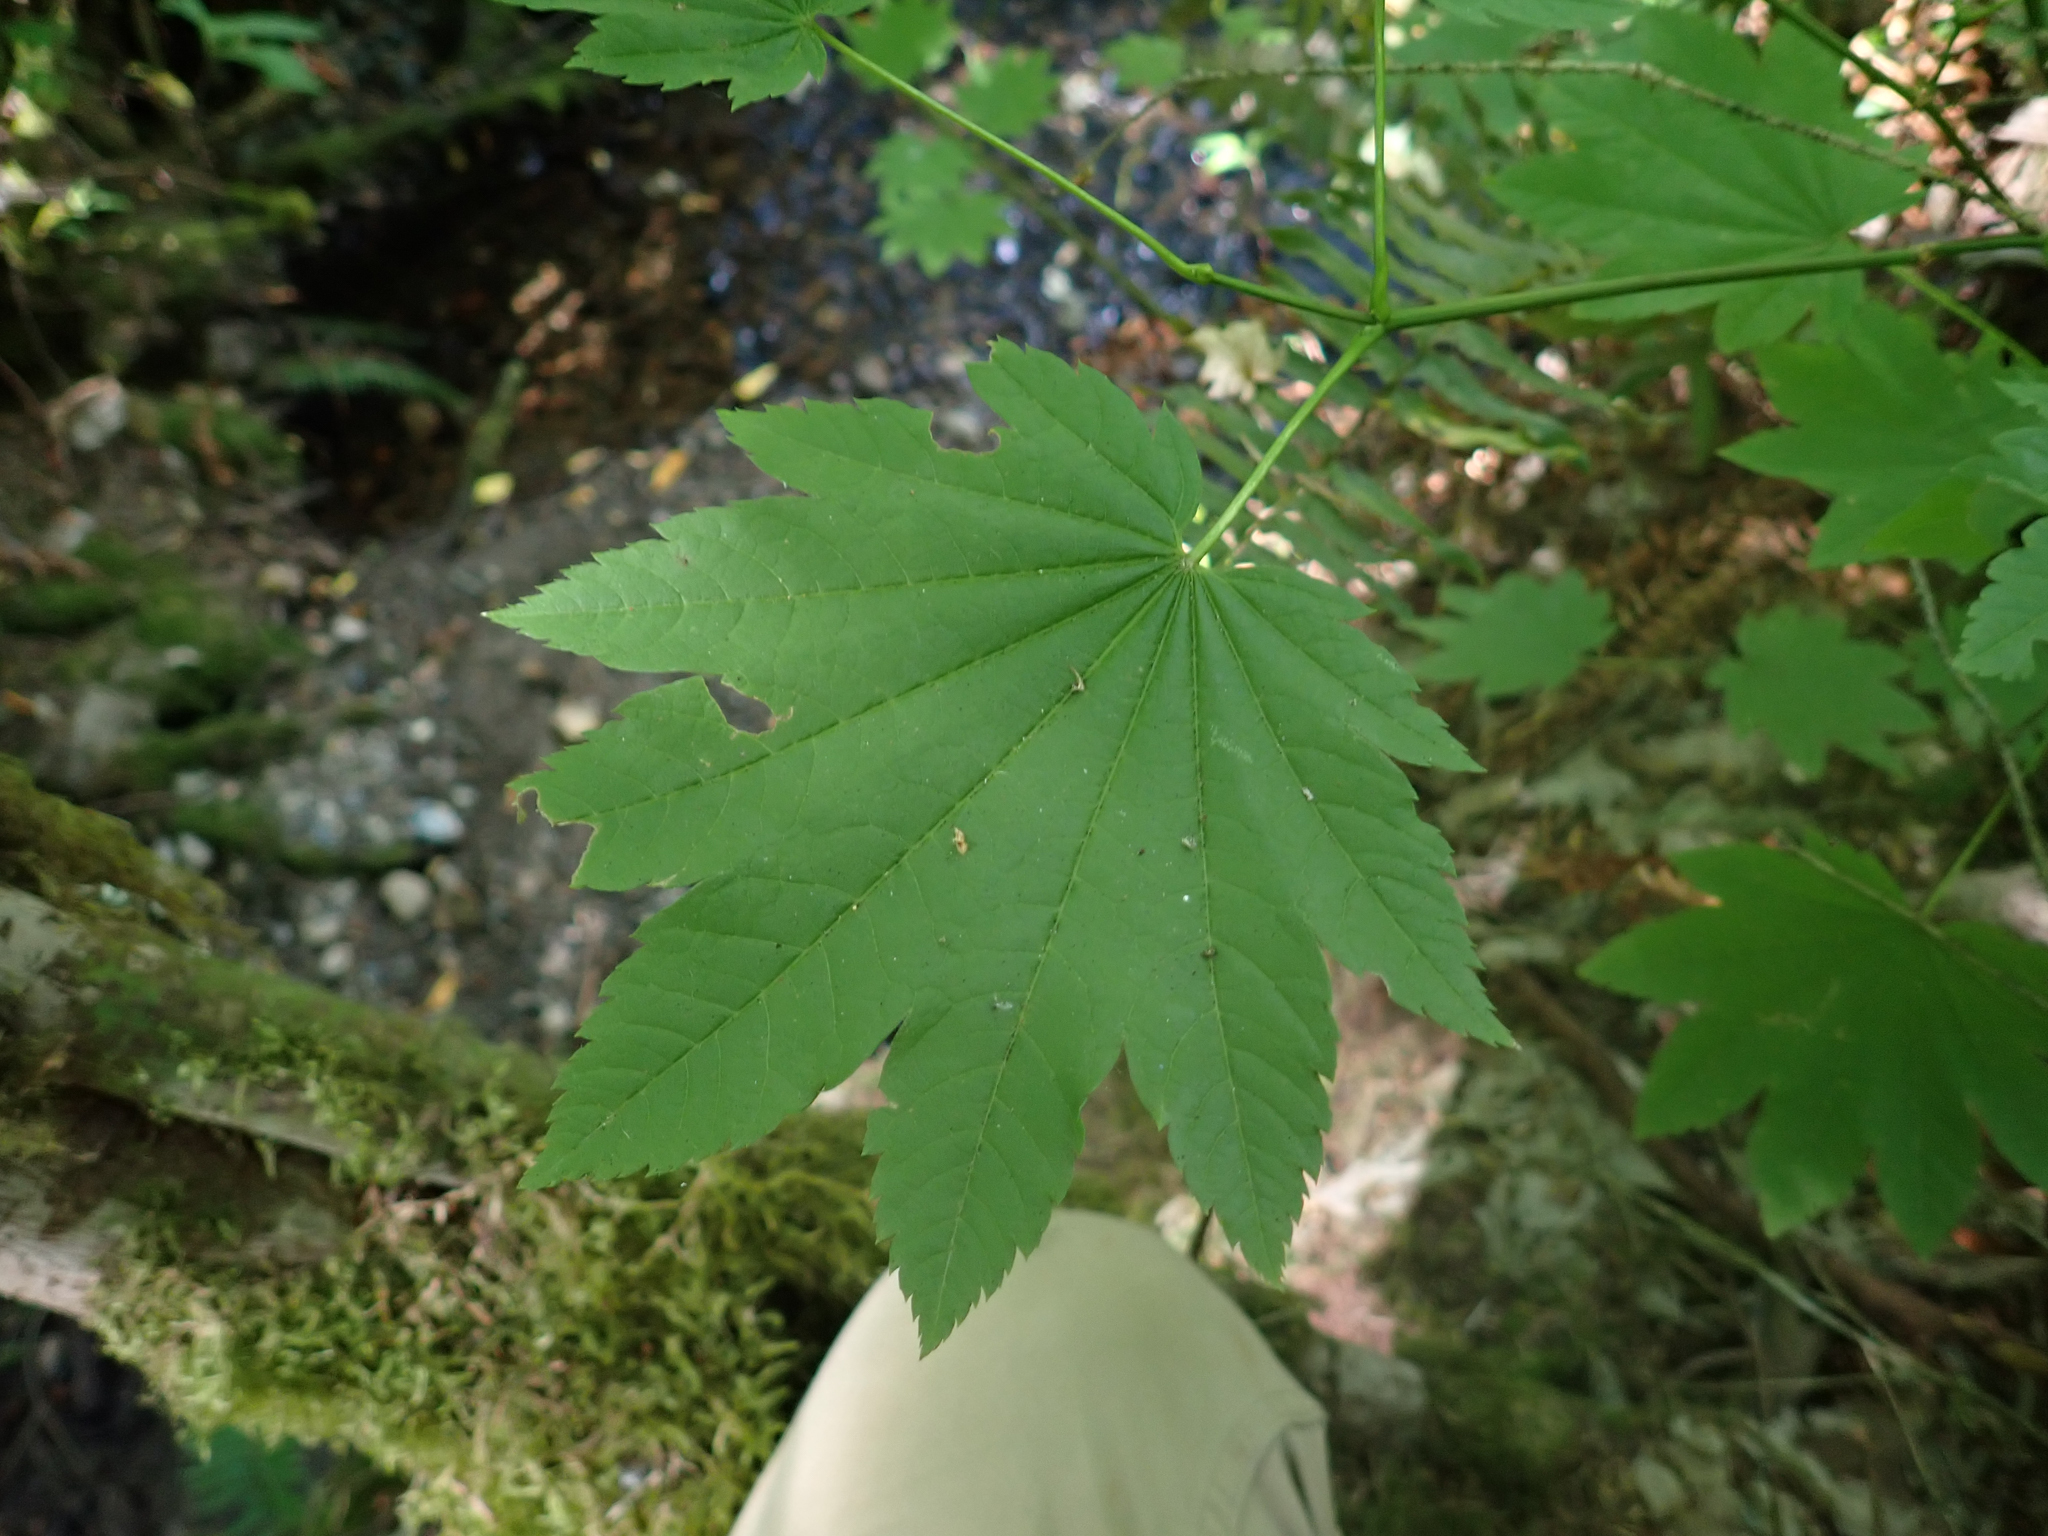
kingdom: Plantae
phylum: Tracheophyta
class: Magnoliopsida
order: Sapindales
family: Sapindaceae
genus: Acer
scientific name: Acer circinatum
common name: Vine maple
